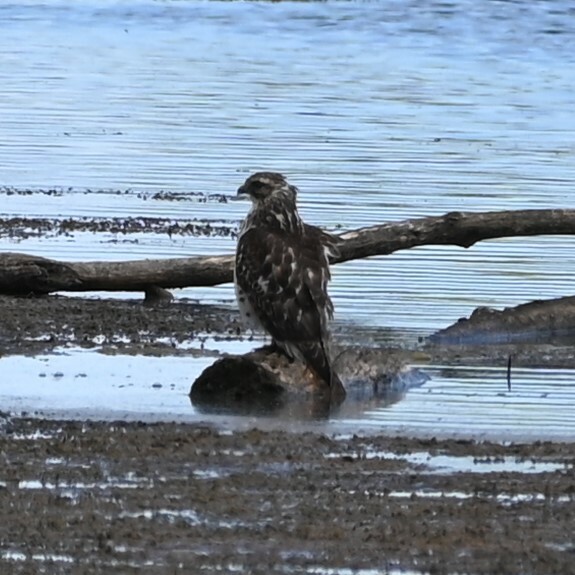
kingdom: Animalia
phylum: Chordata
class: Aves
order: Accipitriformes
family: Accipitridae
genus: Buteo
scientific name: Buteo lineatus
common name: Red-shouldered hawk
